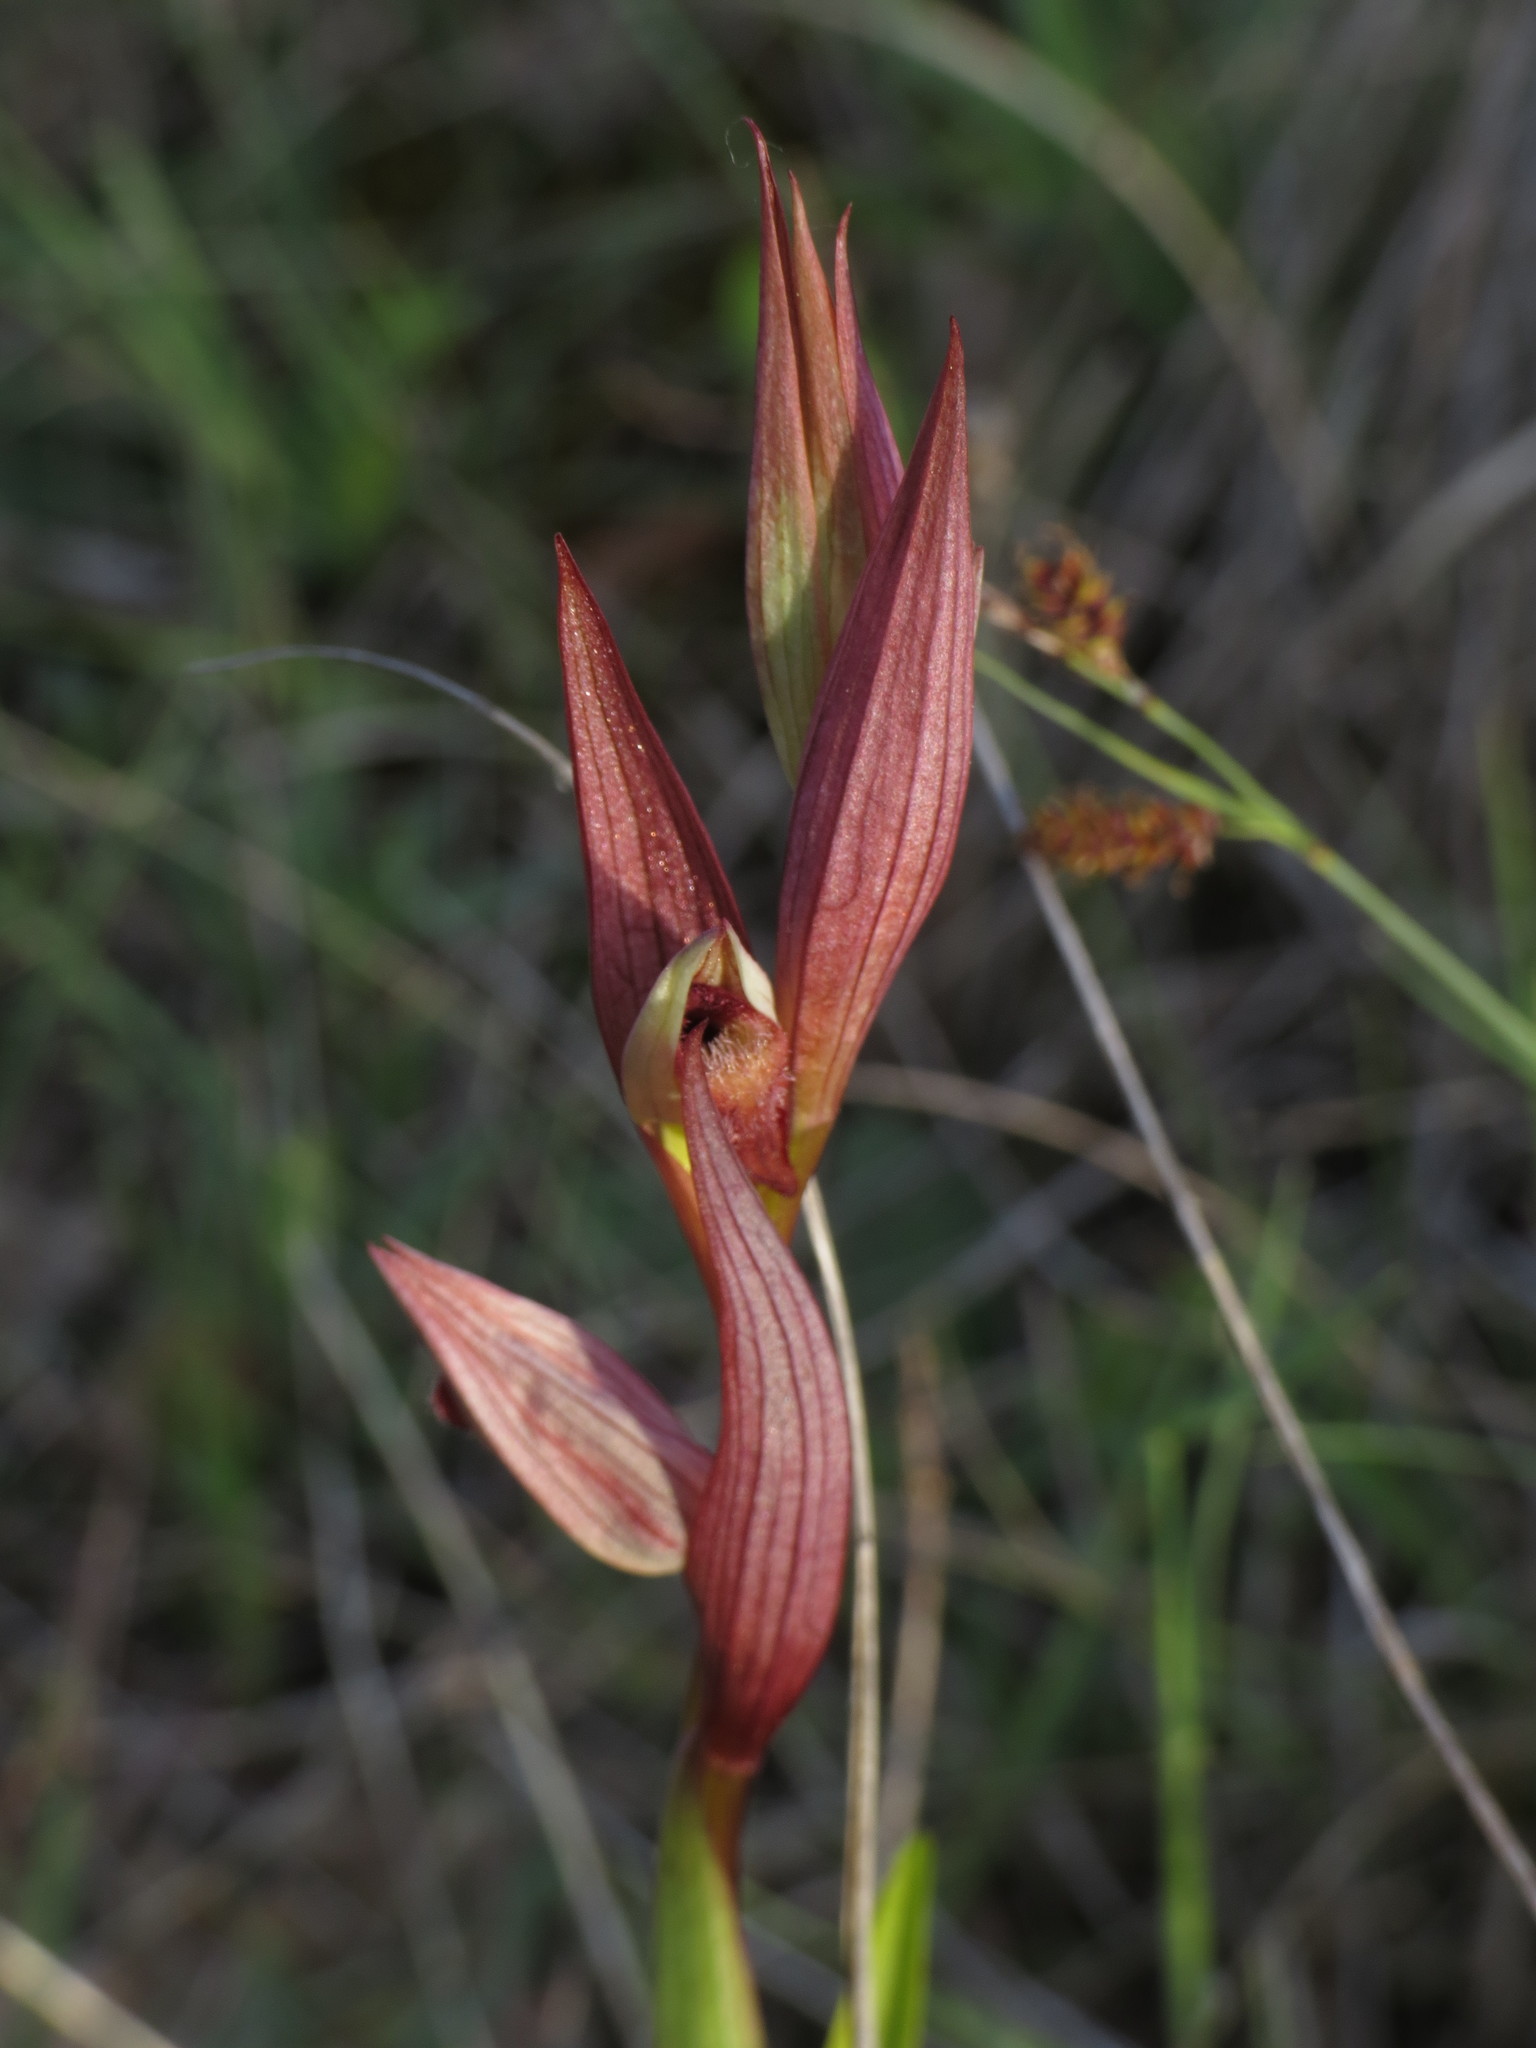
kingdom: Plantae
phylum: Tracheophyta
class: Liliopsida
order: Asparagales
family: Orchidaceae
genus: Serapias
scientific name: Serapias parviflora
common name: Small-flowered tongue-orchid
